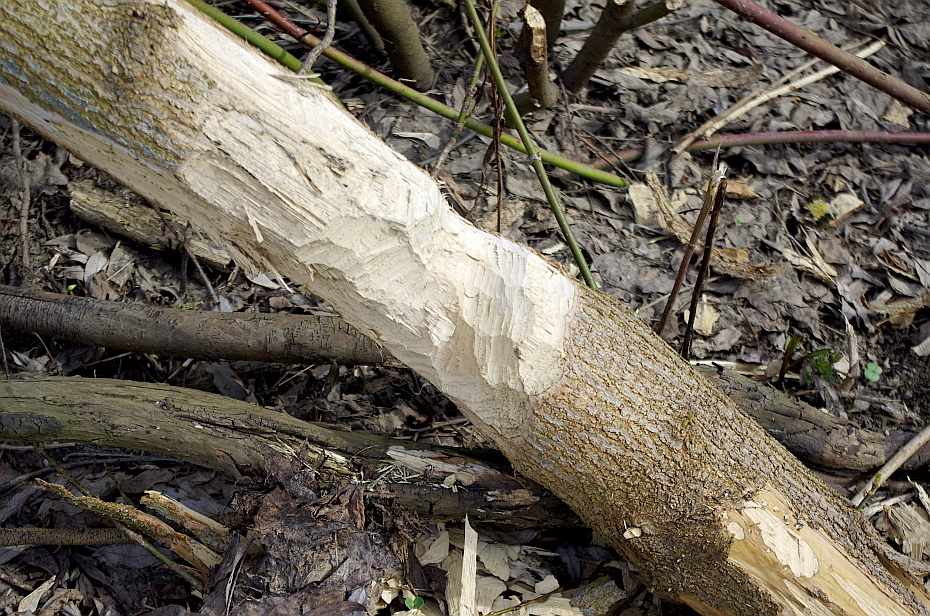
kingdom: Animalia
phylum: Chordata
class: Mammalia
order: Rodentia
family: Castoridae
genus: Castor
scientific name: Castor fiber
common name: Eurasian beaver
